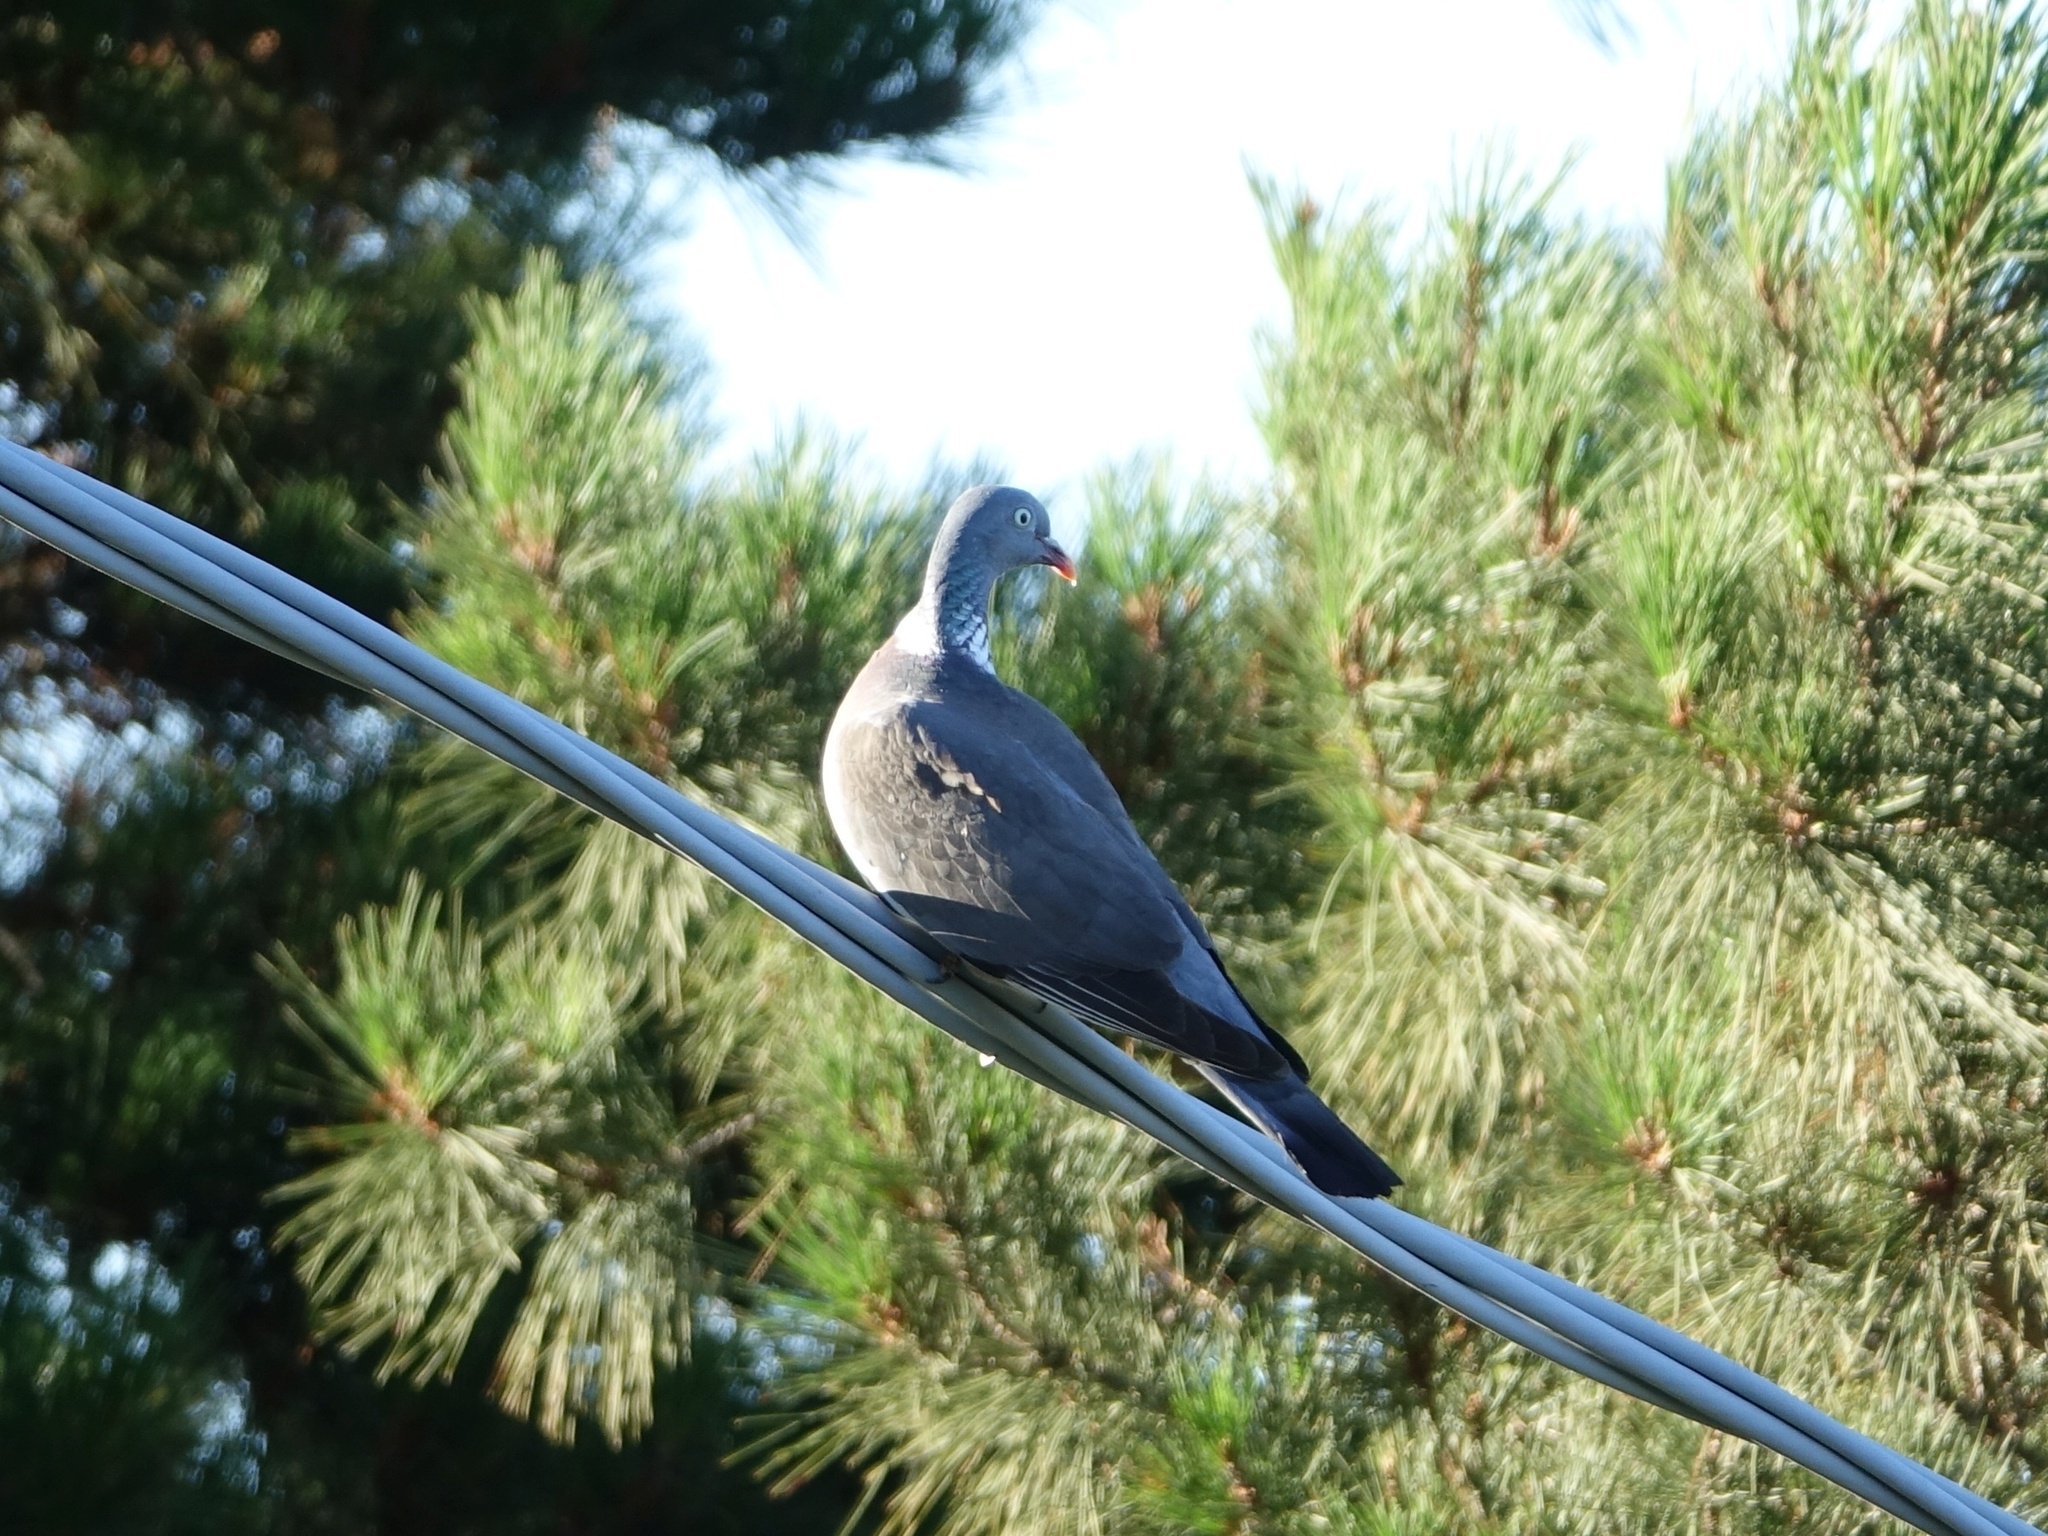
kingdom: Animalia
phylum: Chordata
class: Aves
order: Columbiformes
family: Columbidae
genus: Columba
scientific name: Columba palumbus
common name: Common wood pigeon
